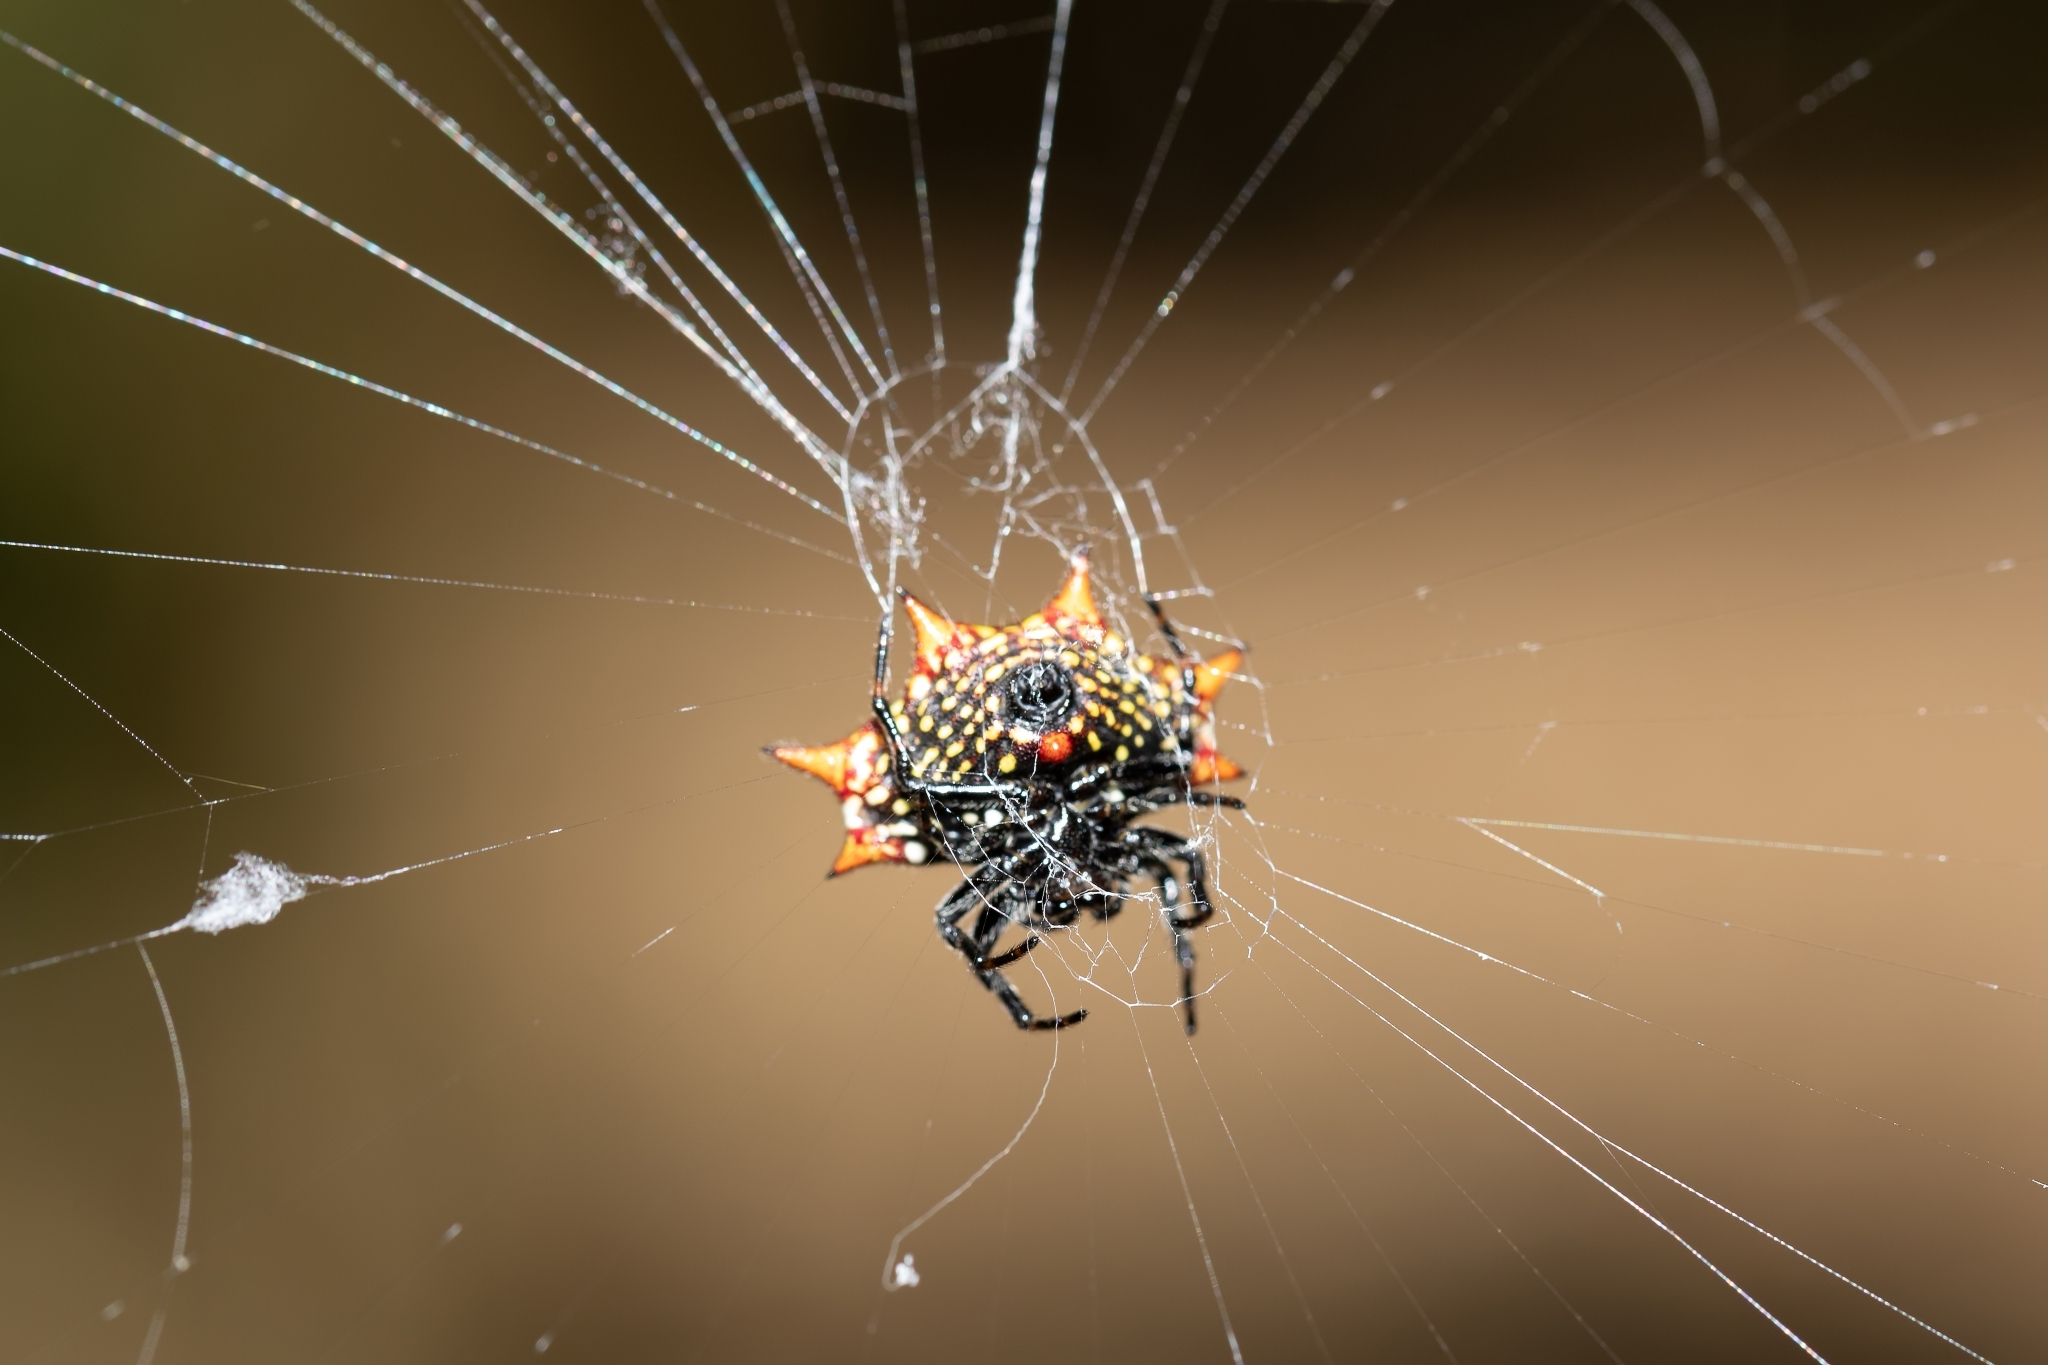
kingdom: Animalia
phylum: Arthropoda
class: Arachnida
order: Araneae
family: Araneidae
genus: Gasteracantha
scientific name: Gasteracantha cancriformis
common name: Orb weavers
